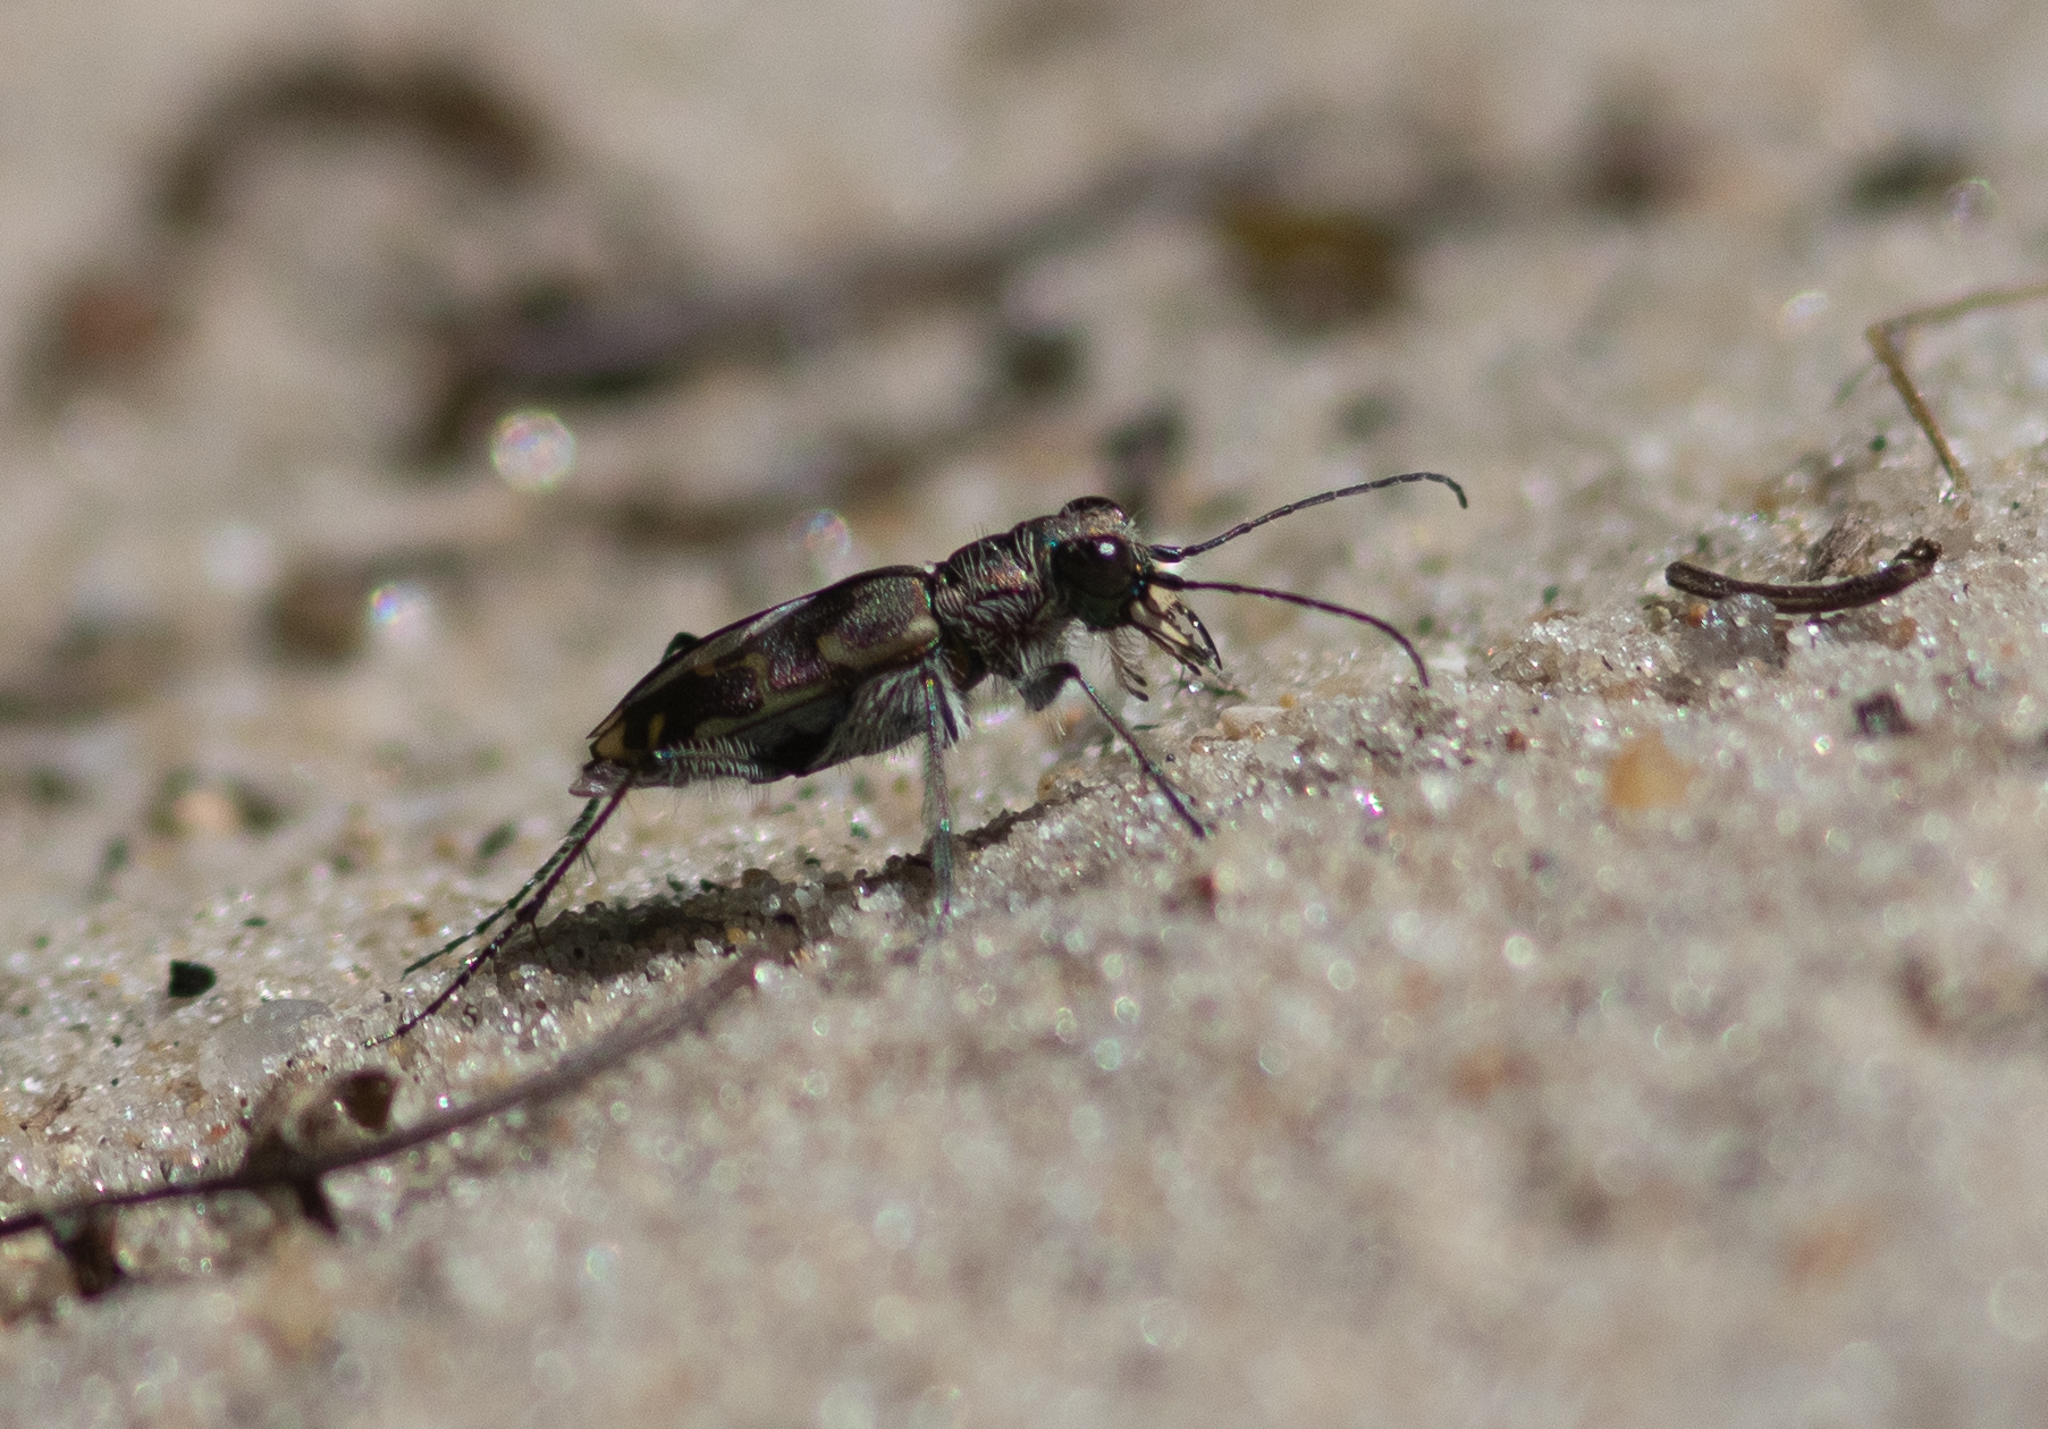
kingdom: Animalia
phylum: Arthropoda
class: Insecta
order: Coleoptera
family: Carabidae
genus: Cicindela
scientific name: Cicindela repanda
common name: Bronzed tiger beetle
